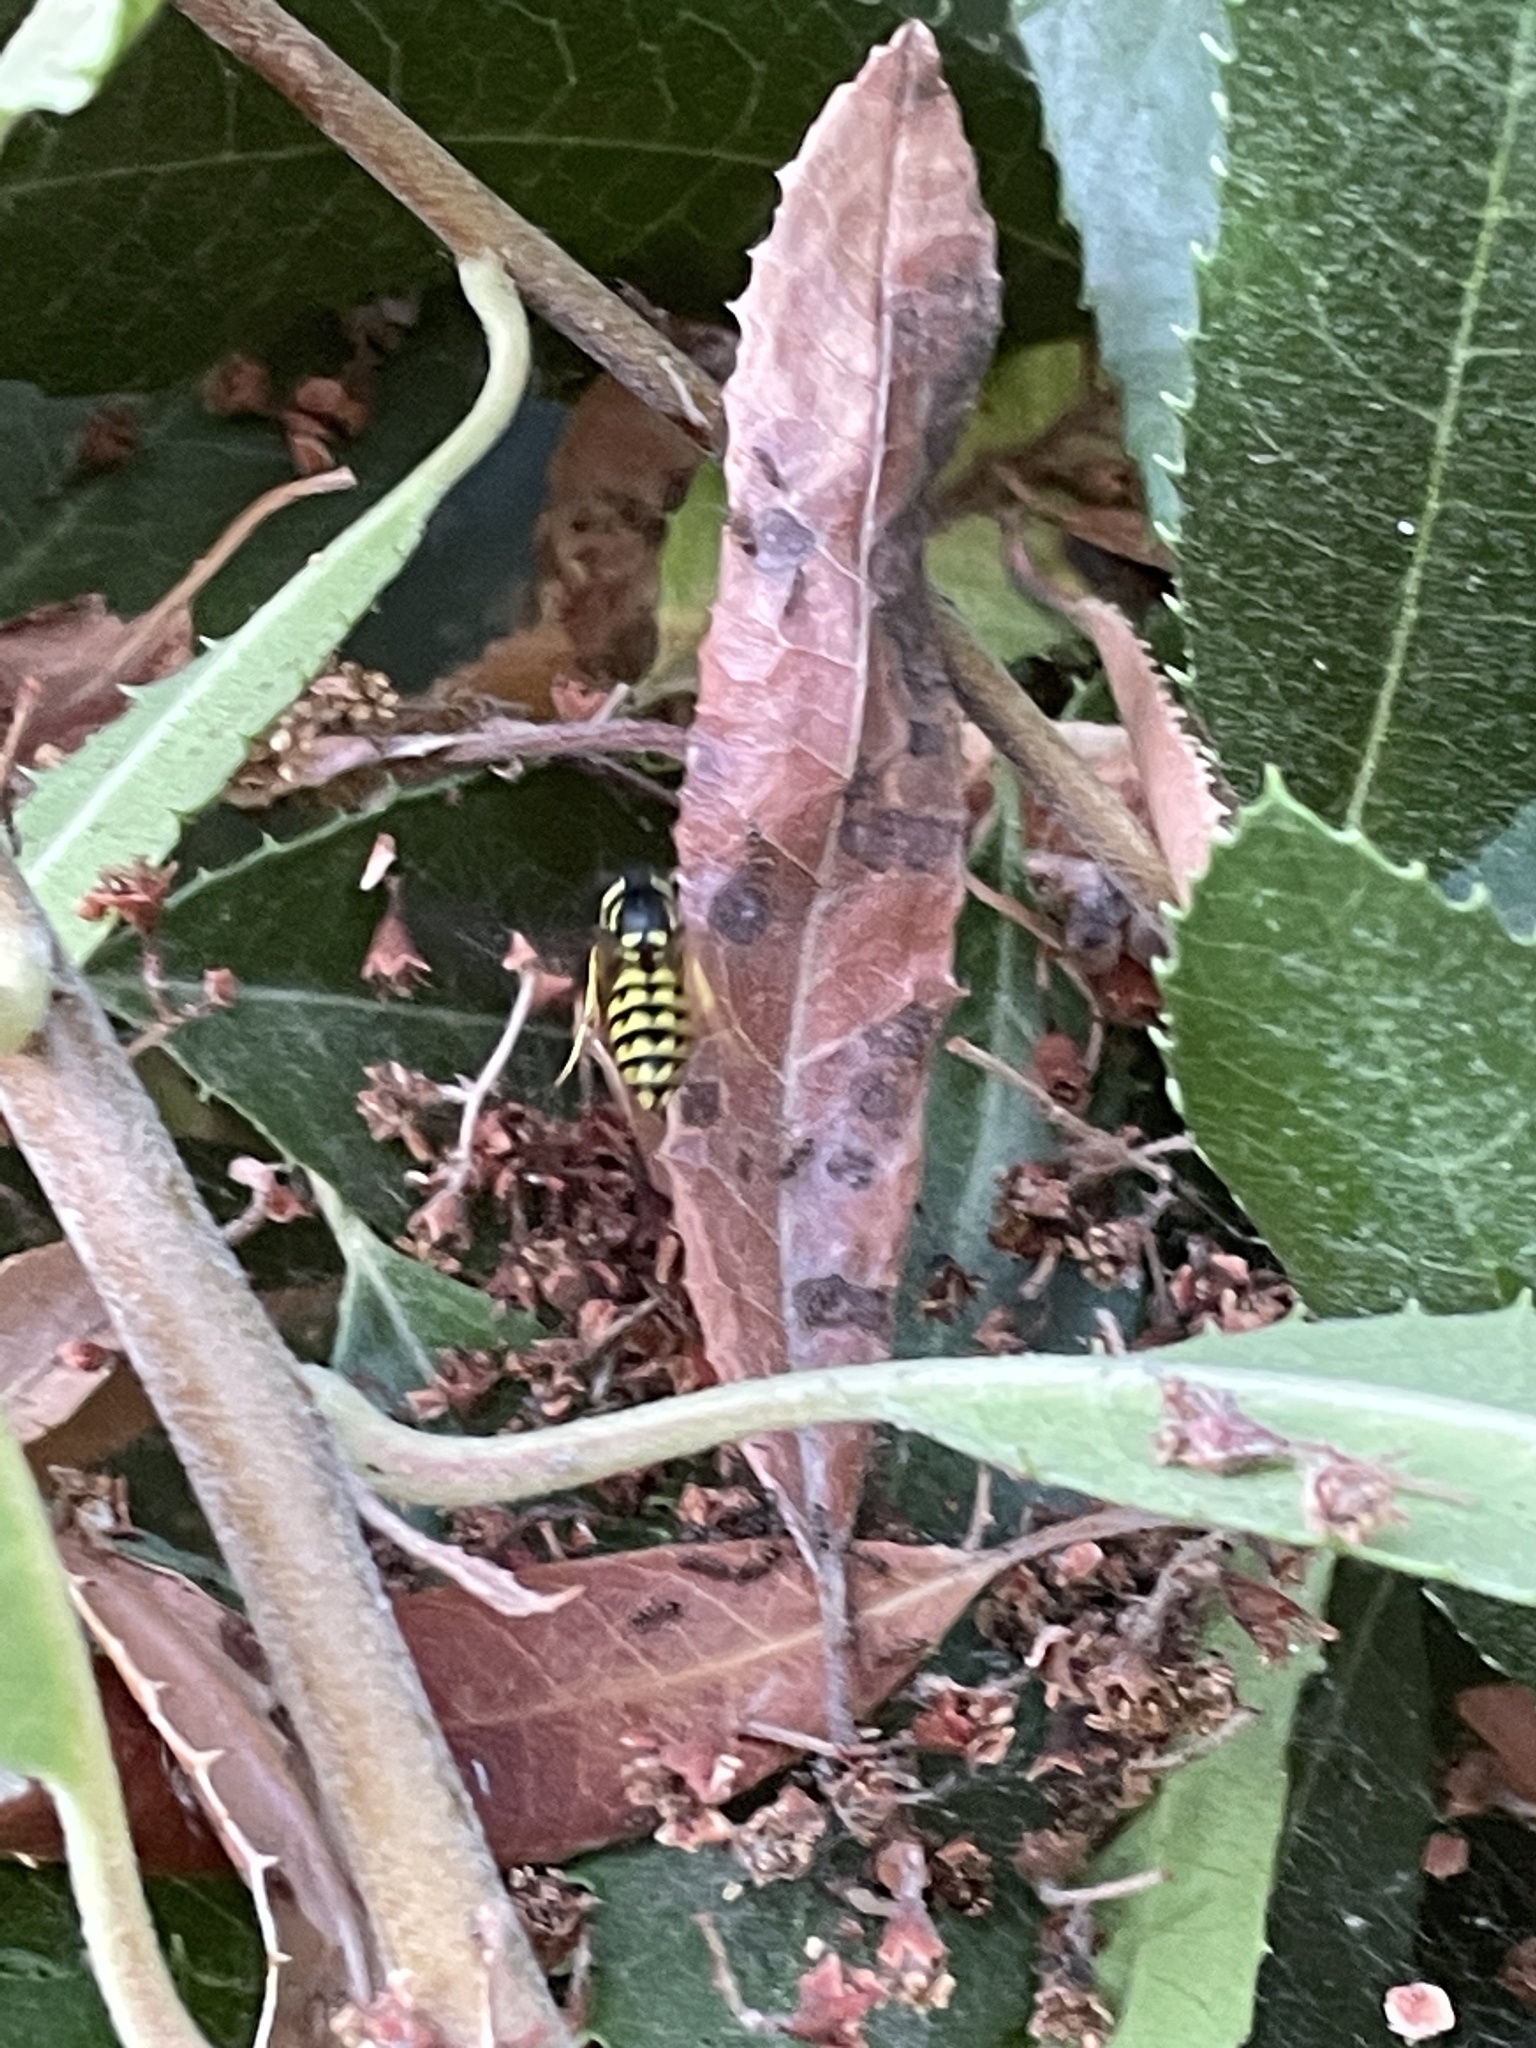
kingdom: Animalia
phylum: Arthropoda
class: Insecta
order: Hymenoptera
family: Vespidae
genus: Vespula
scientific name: Vespula pensylvanica
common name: Western yellowjacket
